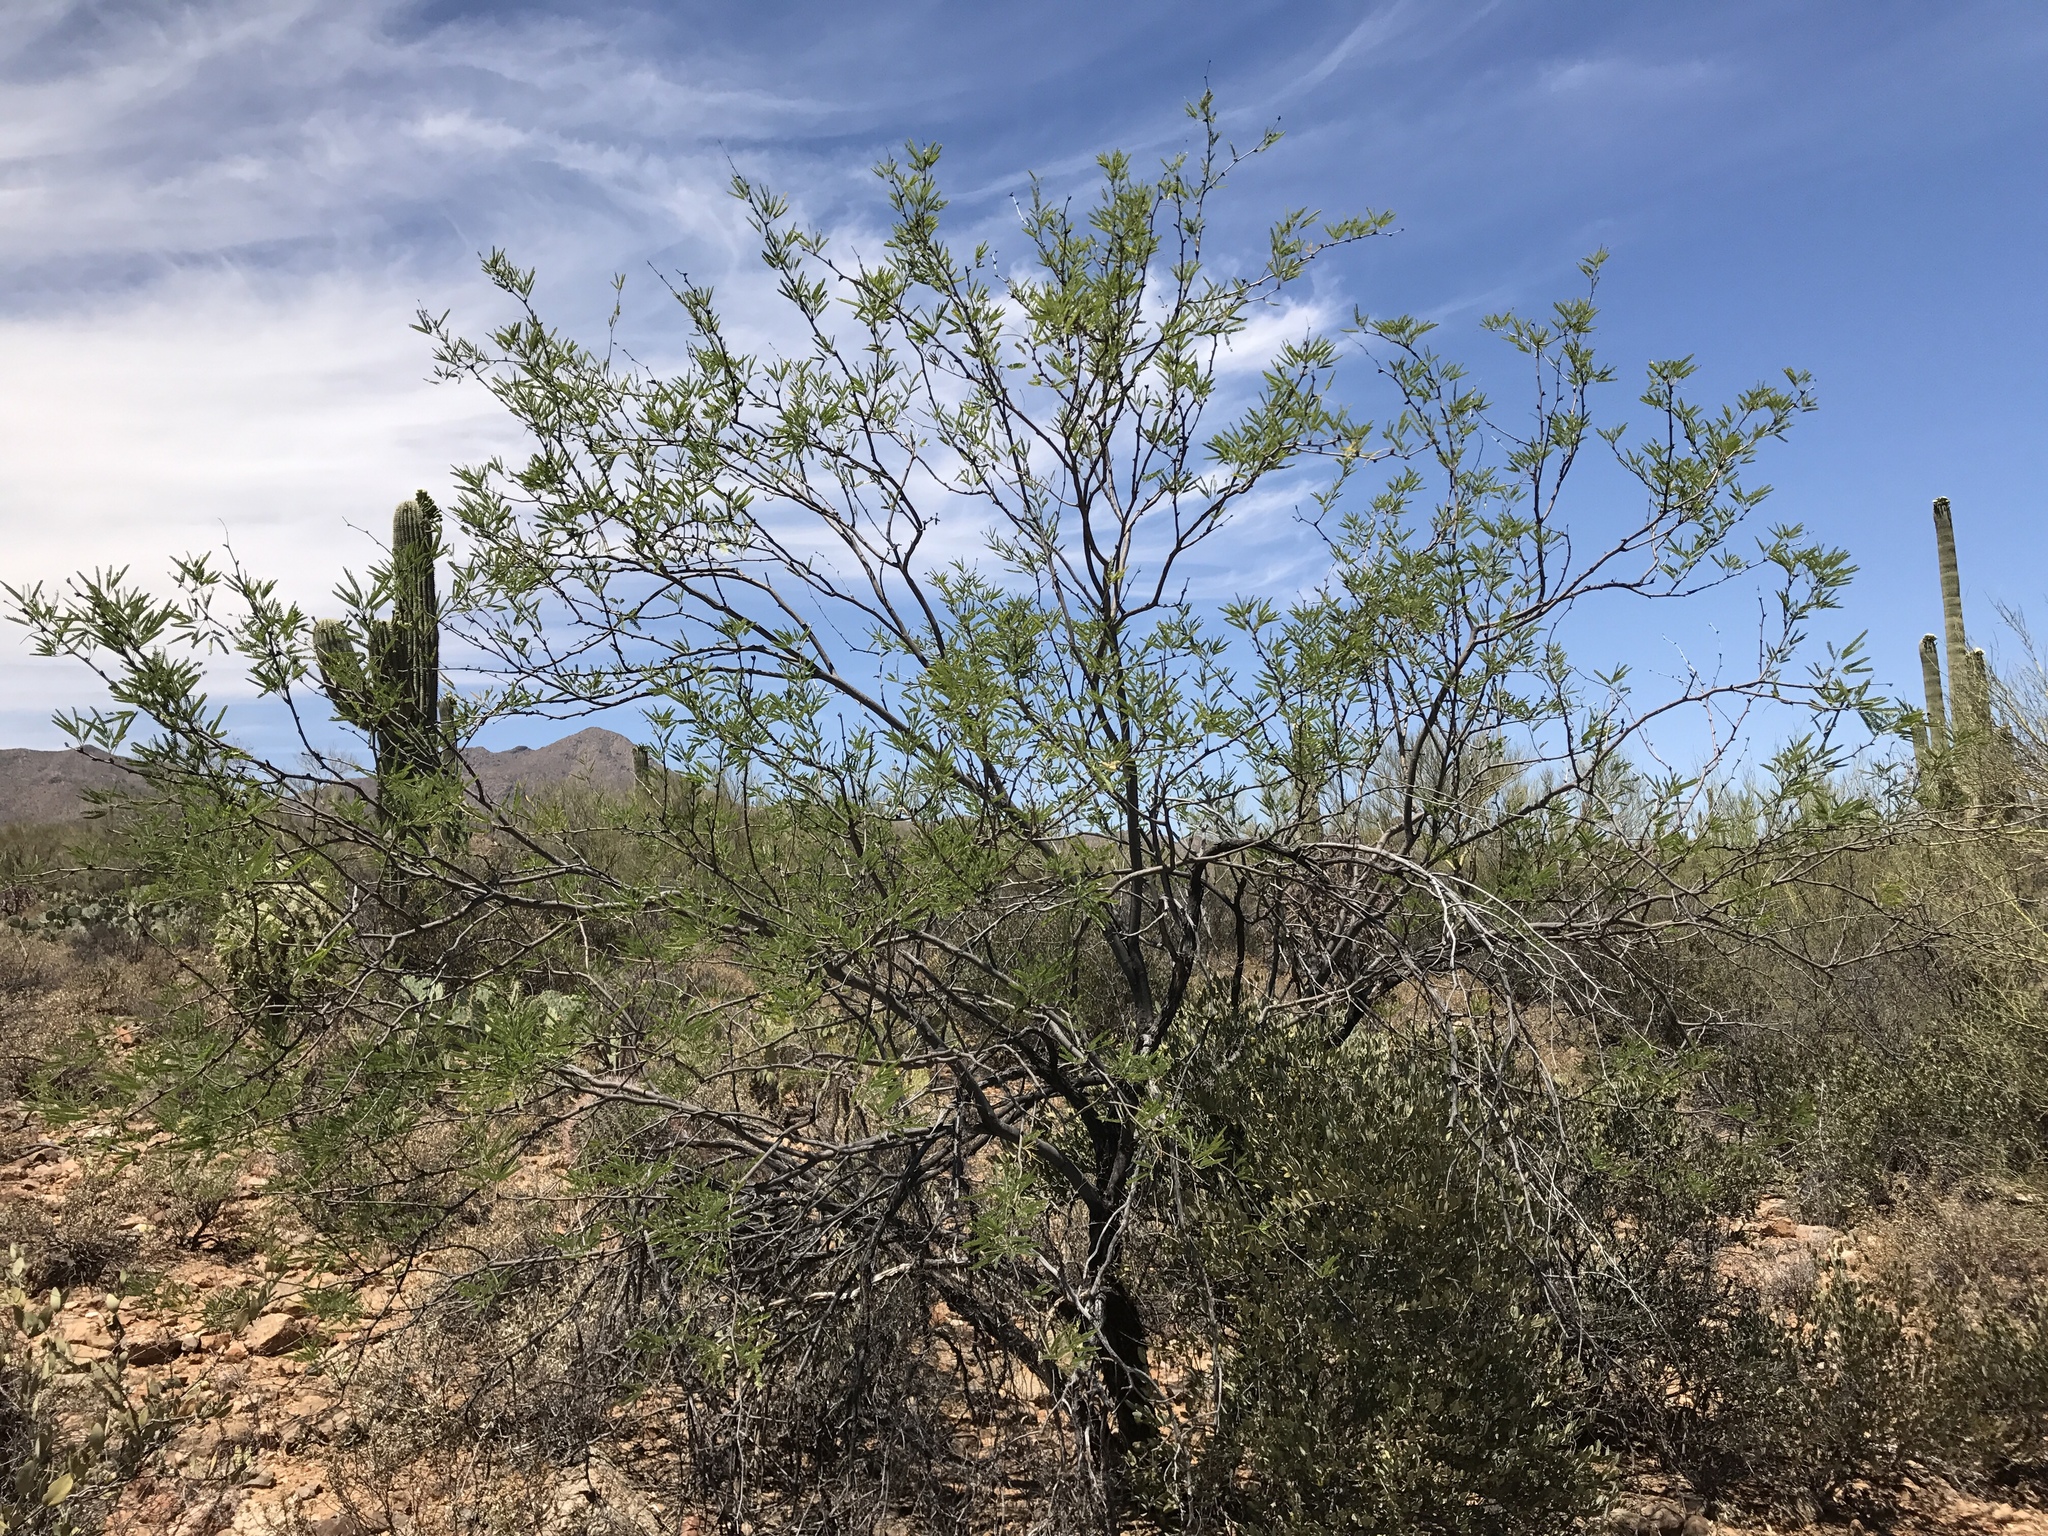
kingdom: Plantae
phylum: Tracheophyta
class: Magnoliopsida
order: Fabales
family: Fabaceae
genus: Prosopis
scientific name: Prosopis velutina
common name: Velvet mesquite
